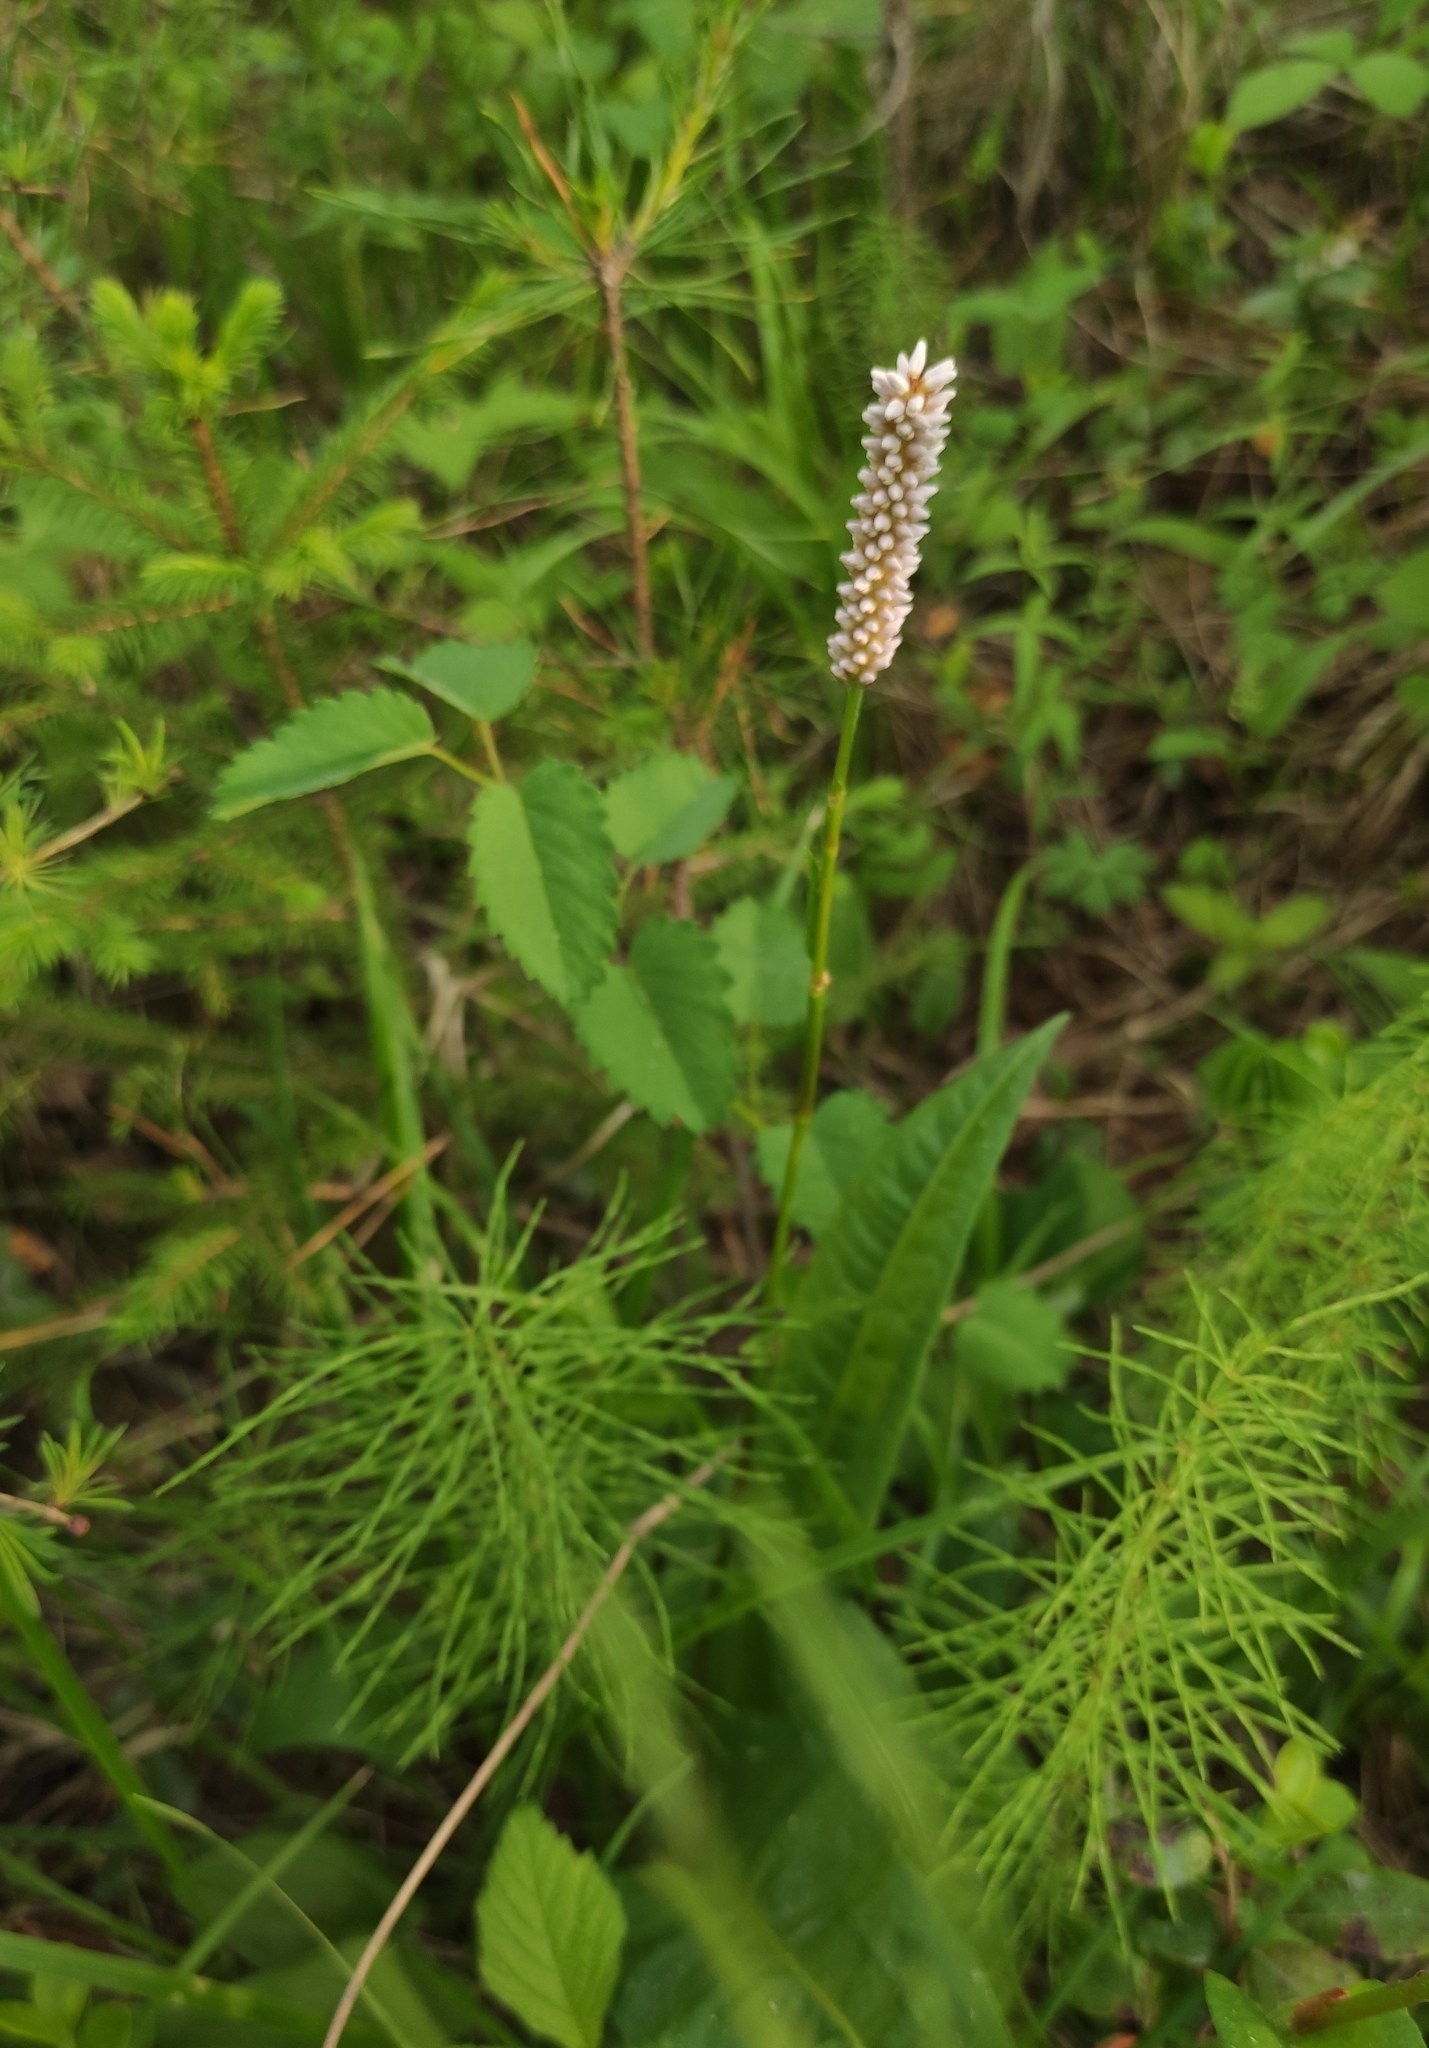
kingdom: Plantae
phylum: Tracheophyta
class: Magnoliopsida
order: Caryophyllales
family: Polygonaceae
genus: Bistorta
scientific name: Bistorta officinalis
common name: Common bistort
